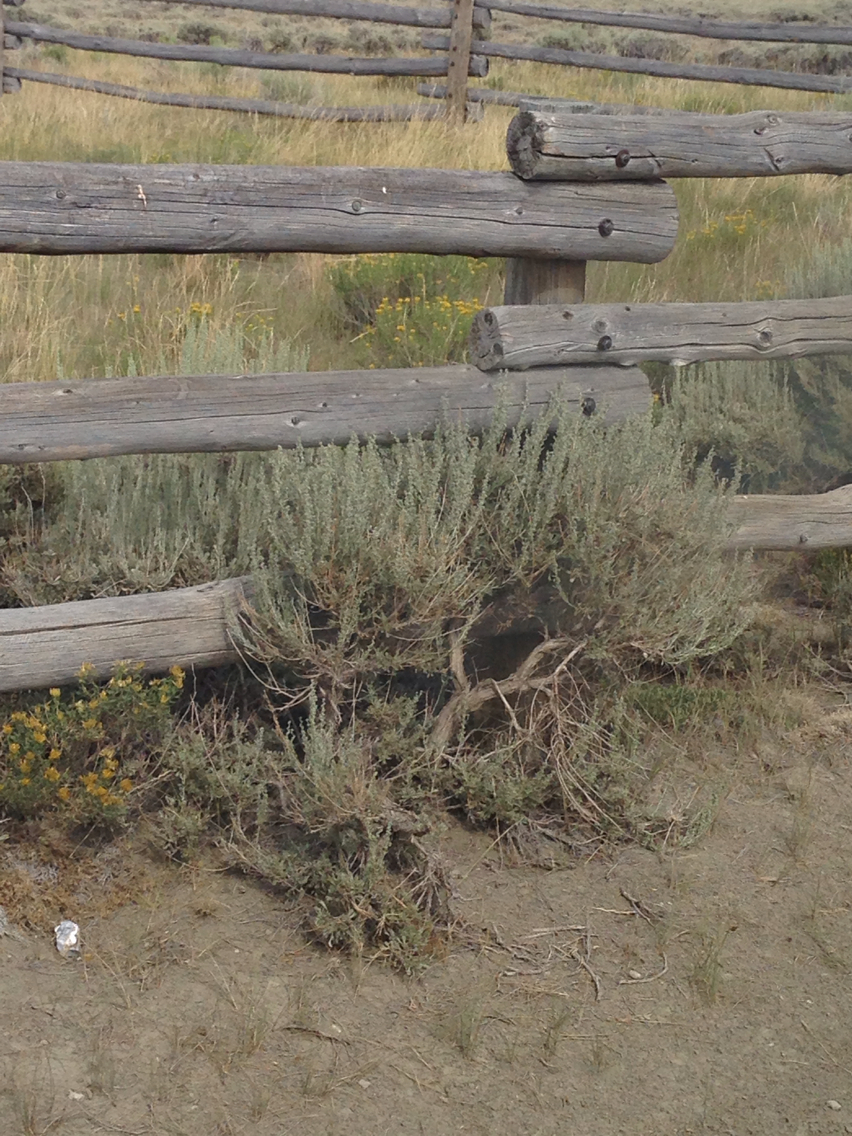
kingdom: Plantae
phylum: Tracheophyta
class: Magnoliopsida
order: Asterales
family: Asteraceae
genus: Artemisia
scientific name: Artemisia tridentata
